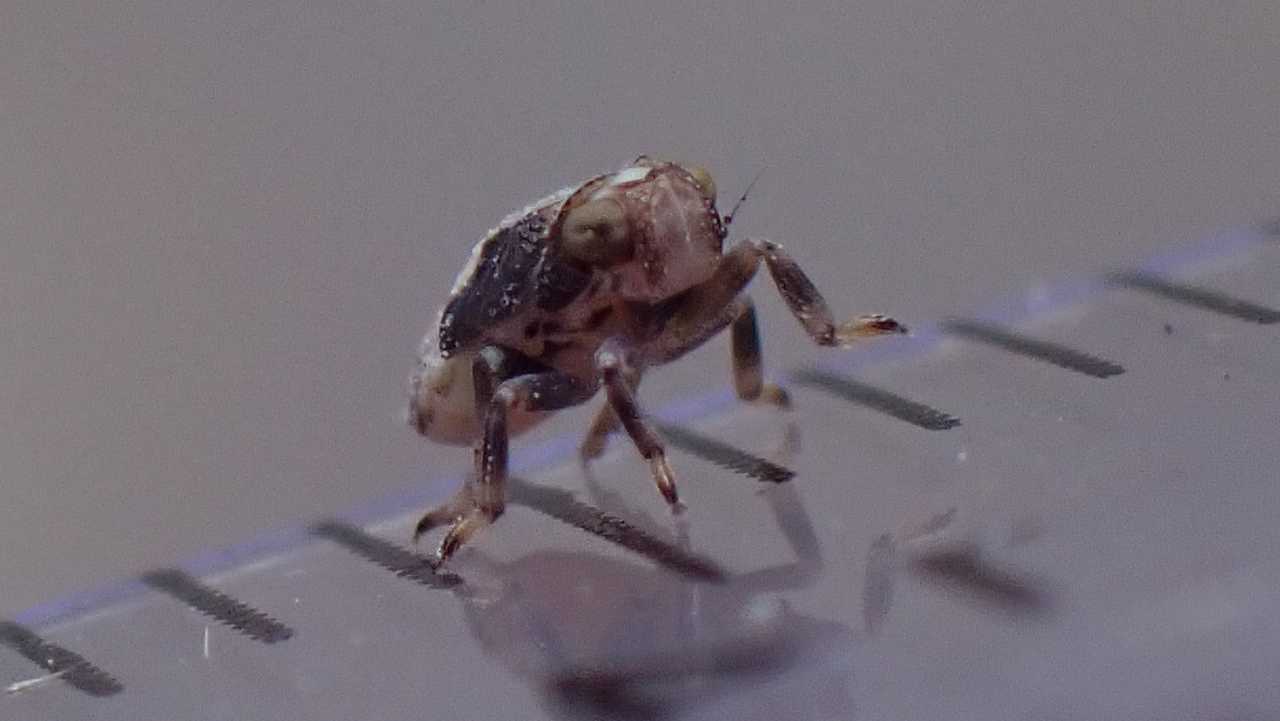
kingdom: Animalia
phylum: Arthropoda
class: Insecta
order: Hemiptera
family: Issidae
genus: Issus
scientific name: Issus coleoptratus
